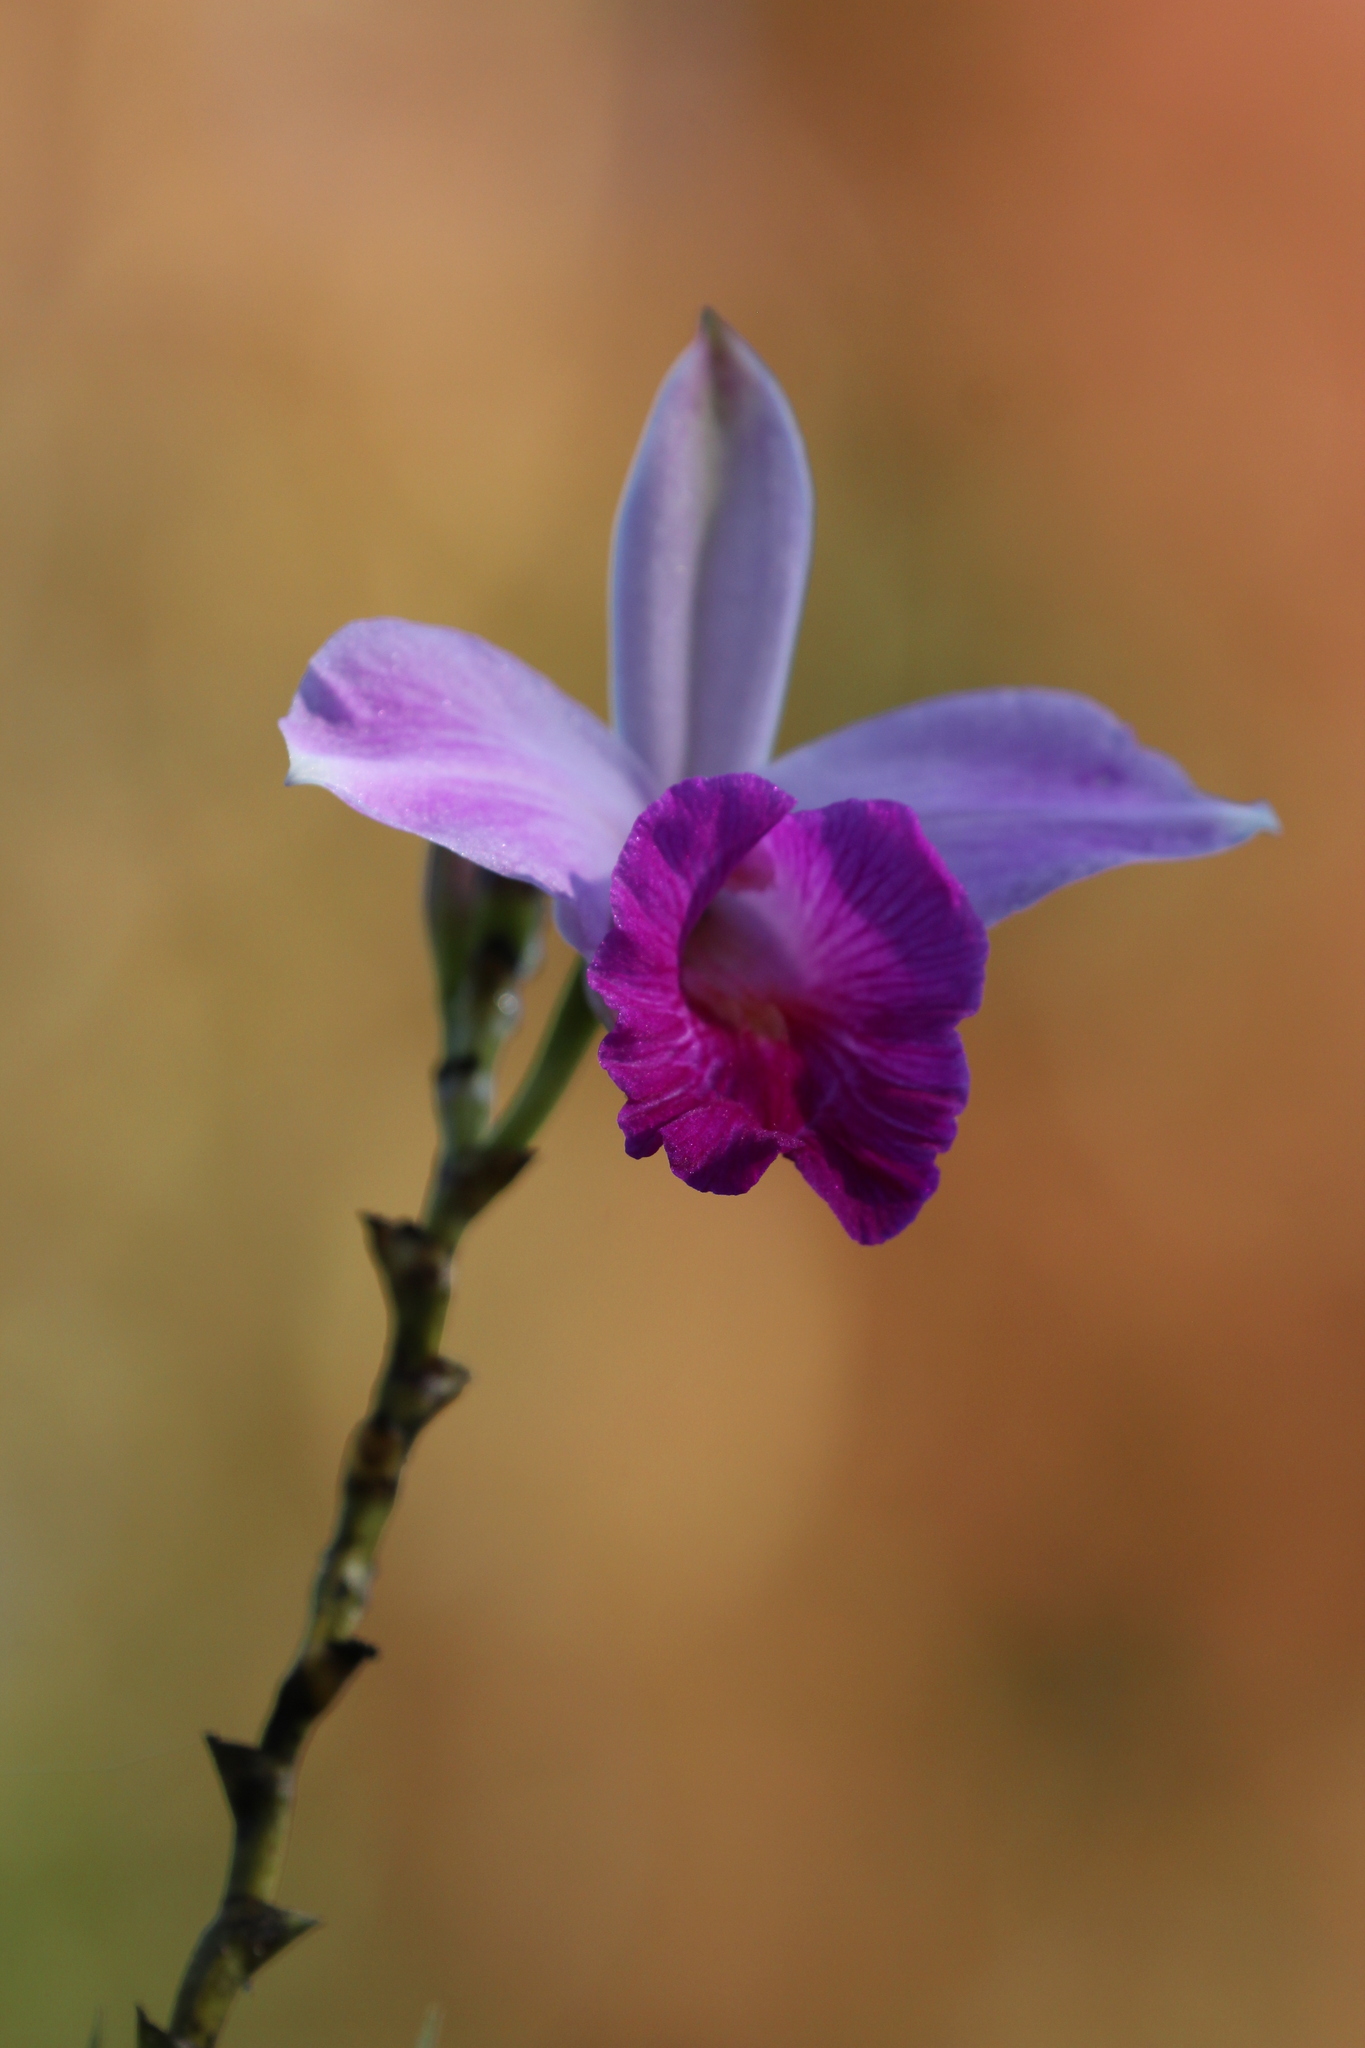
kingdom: Plantae
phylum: Tracheophyta
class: Liliopsida
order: Asparagales
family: Orchidaceae
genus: Arundina
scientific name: Arundina graminifolia
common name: Bamboo orchid
